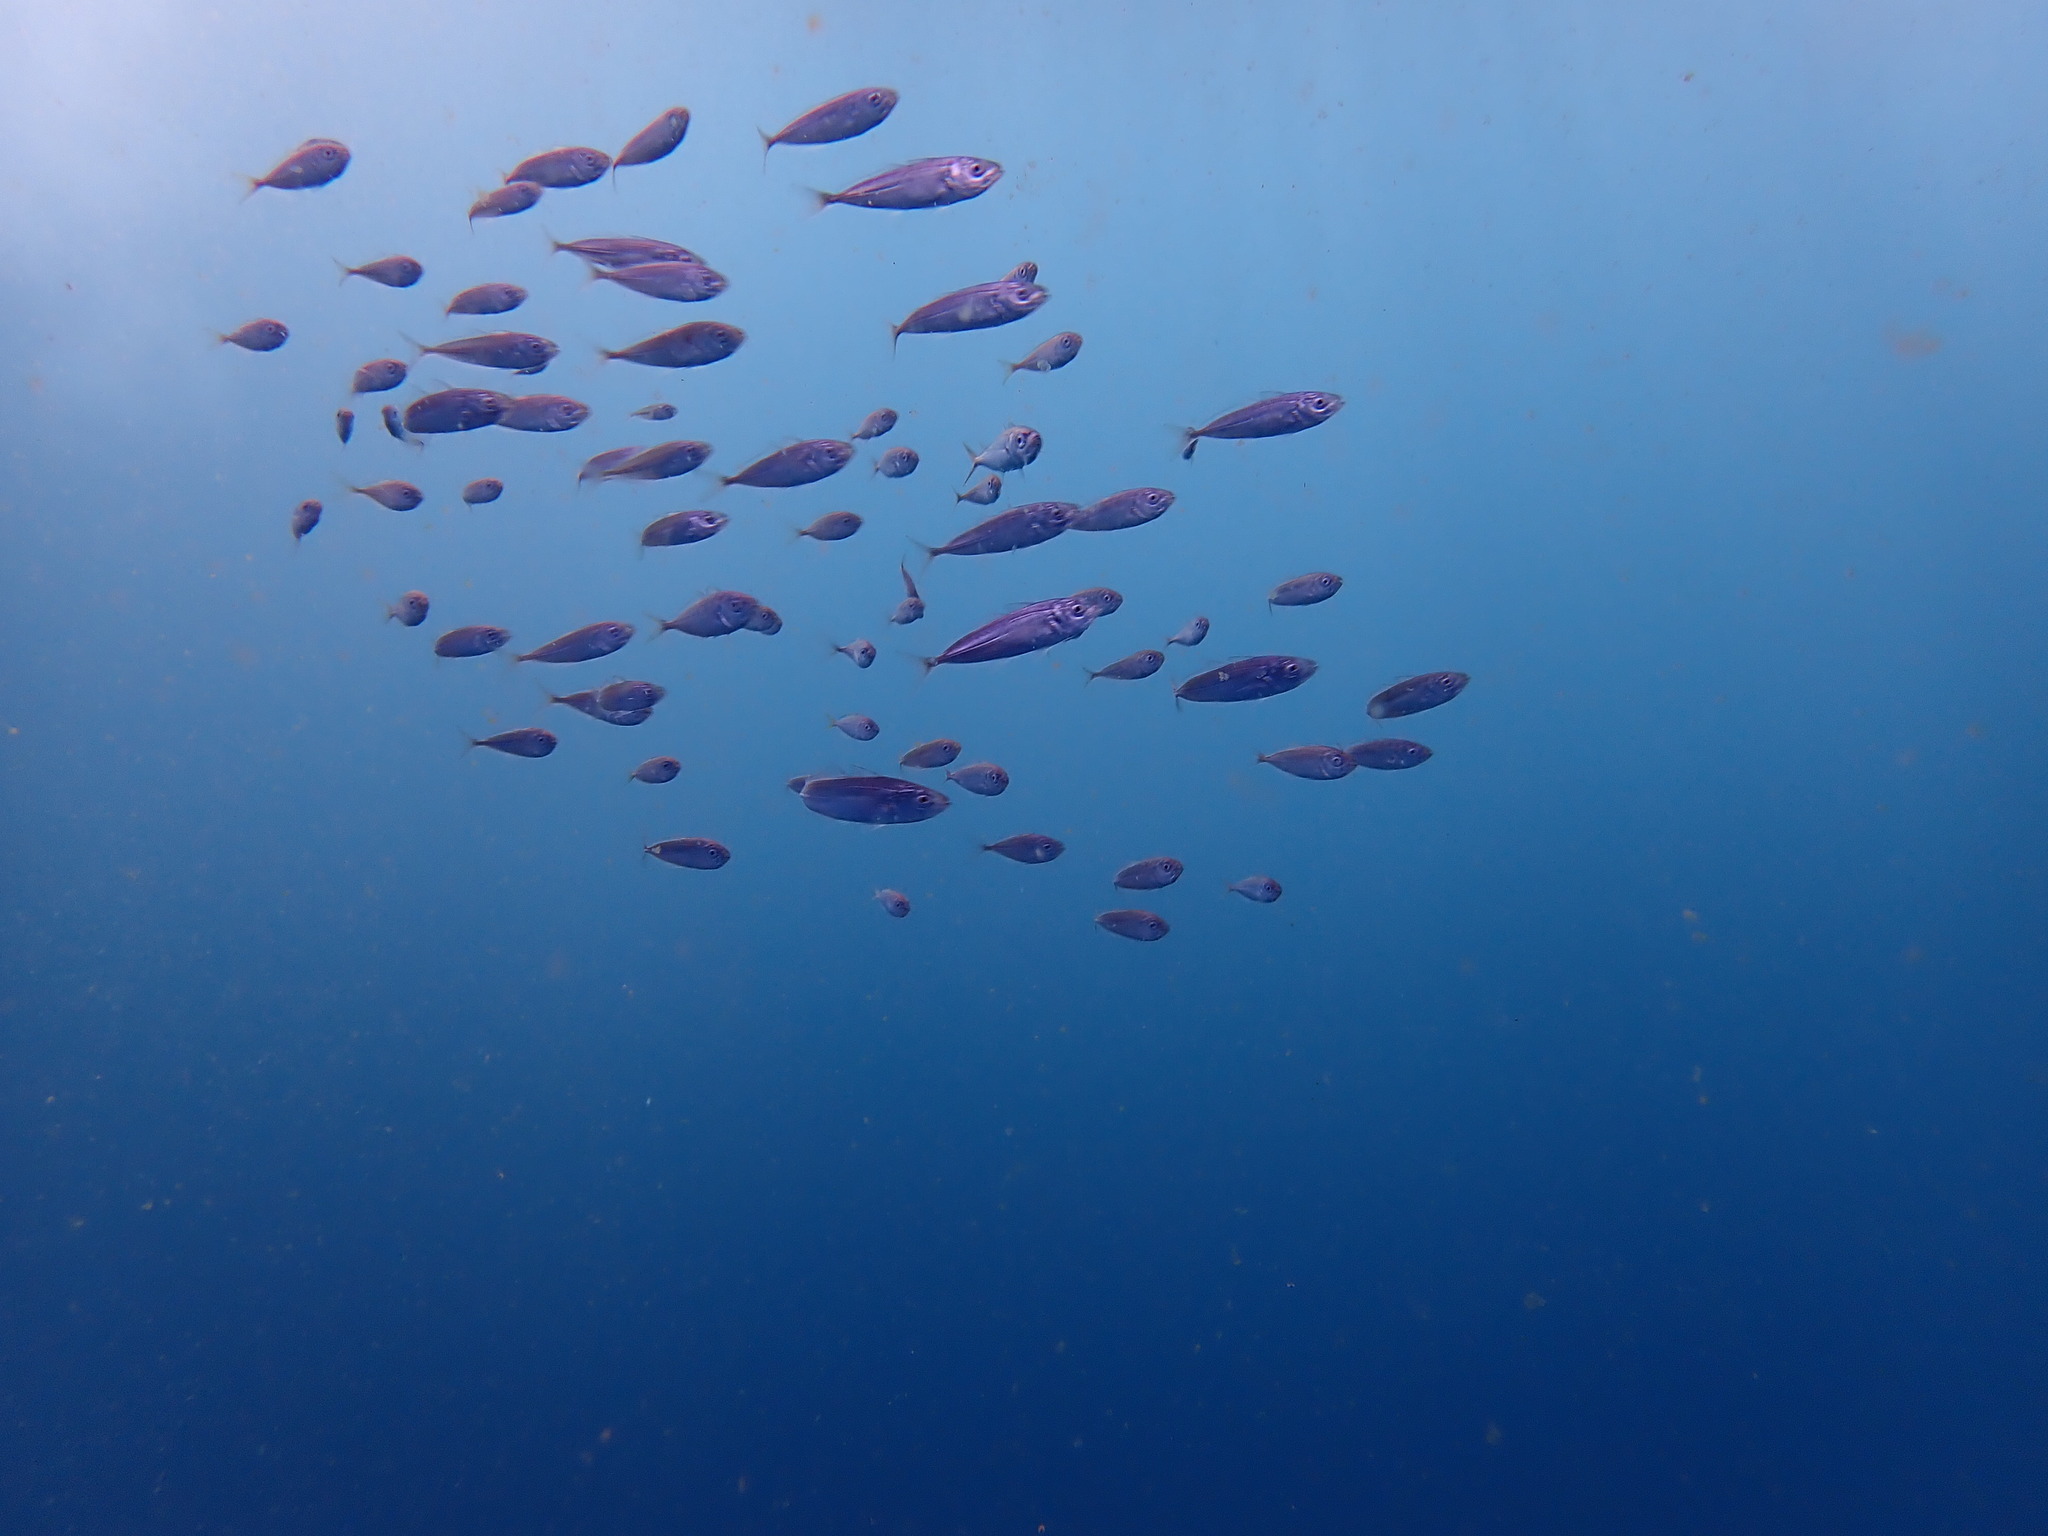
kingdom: Animalia
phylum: Chordata
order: Perciformes
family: Carangidae
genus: Trachurus
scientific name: Trachurus novaezelandiae
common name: Yellowtail horse mackerel
